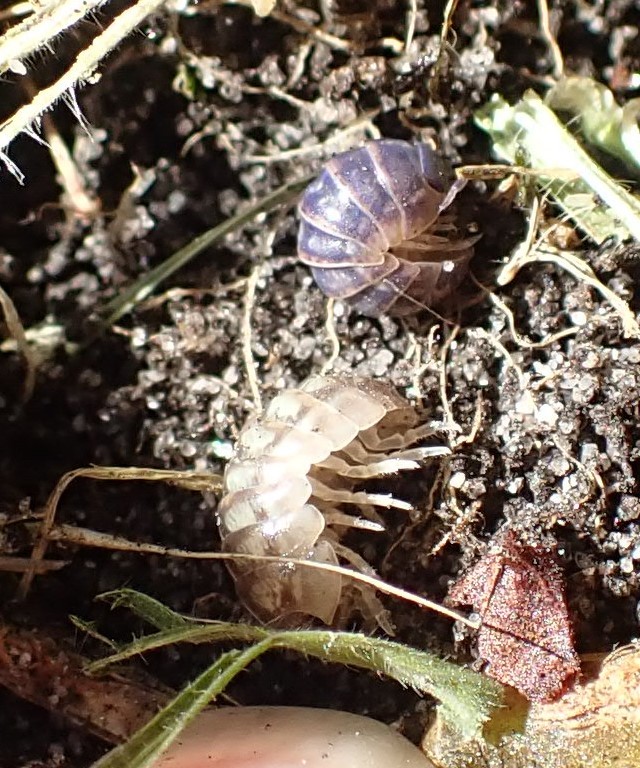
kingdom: Viruses
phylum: Nucleocytoviricota
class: Megaviricetes
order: Pimascovirales
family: Iridoviridae
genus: Iridovirus
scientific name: Iridovirus Invertebrate iridescent virus 31
